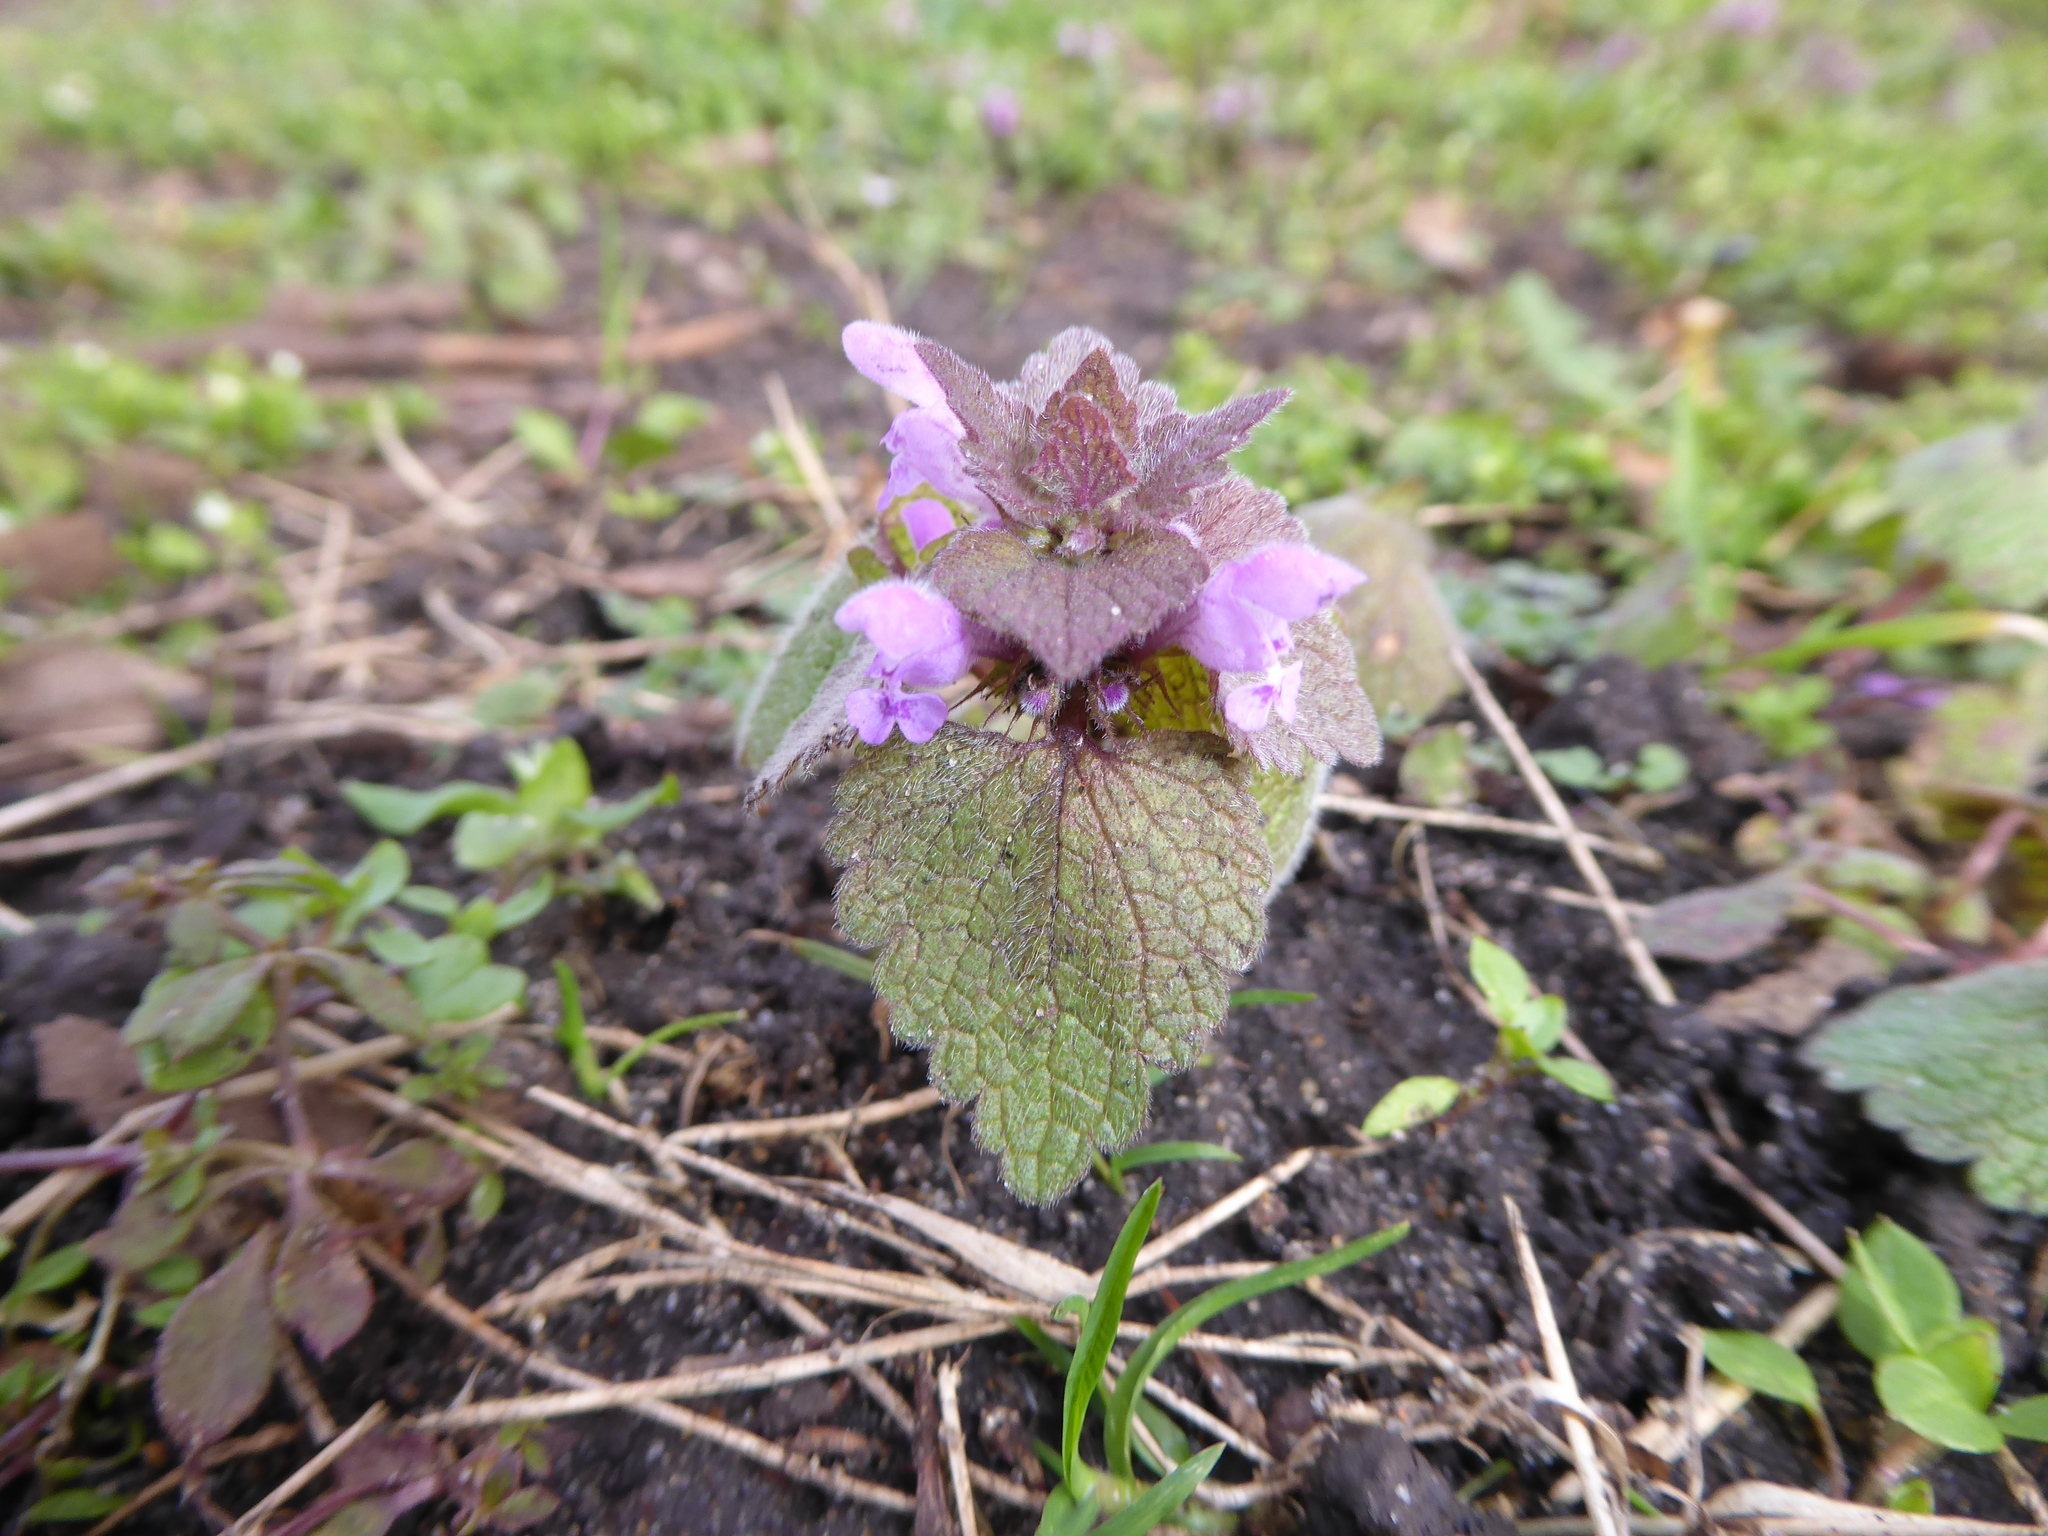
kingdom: Plantae
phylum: Tracheophyta
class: Magnoliopsida
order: Lamiales
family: Lamiaceae
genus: Lamium
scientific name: Lamium purpureum
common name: Red dead-nettle
